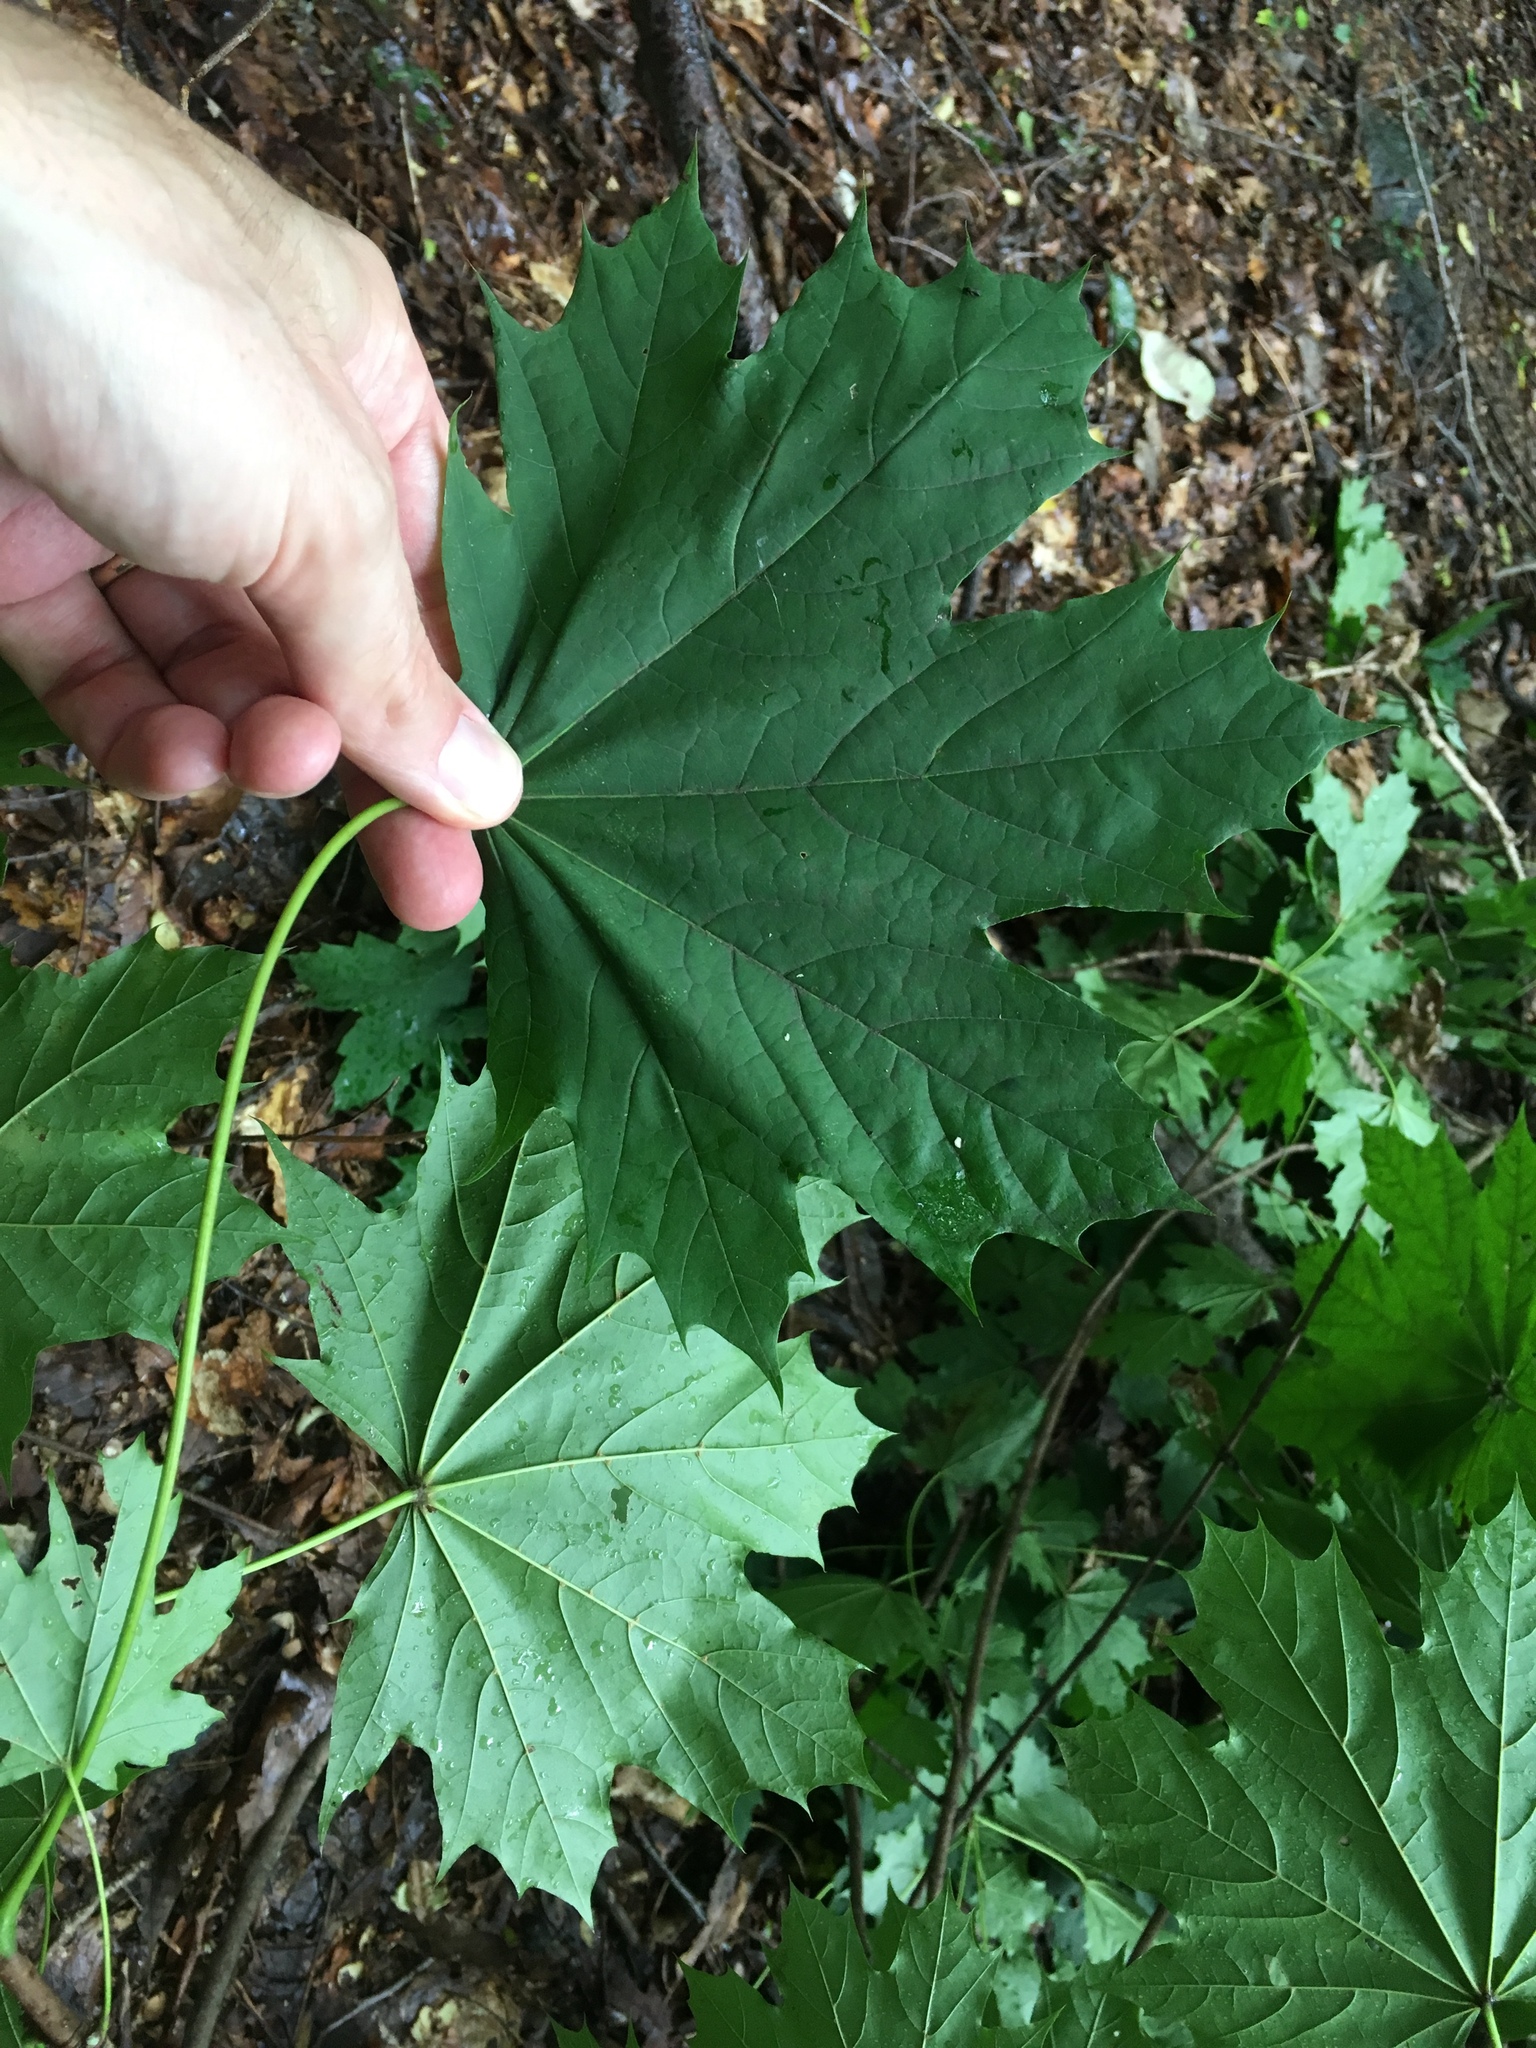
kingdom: Plantae
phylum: Tracheophyta
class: Magnoliopsida
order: Sapindales
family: Sapindaceae
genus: Acer
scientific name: Acer platanoides
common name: Norway maple
